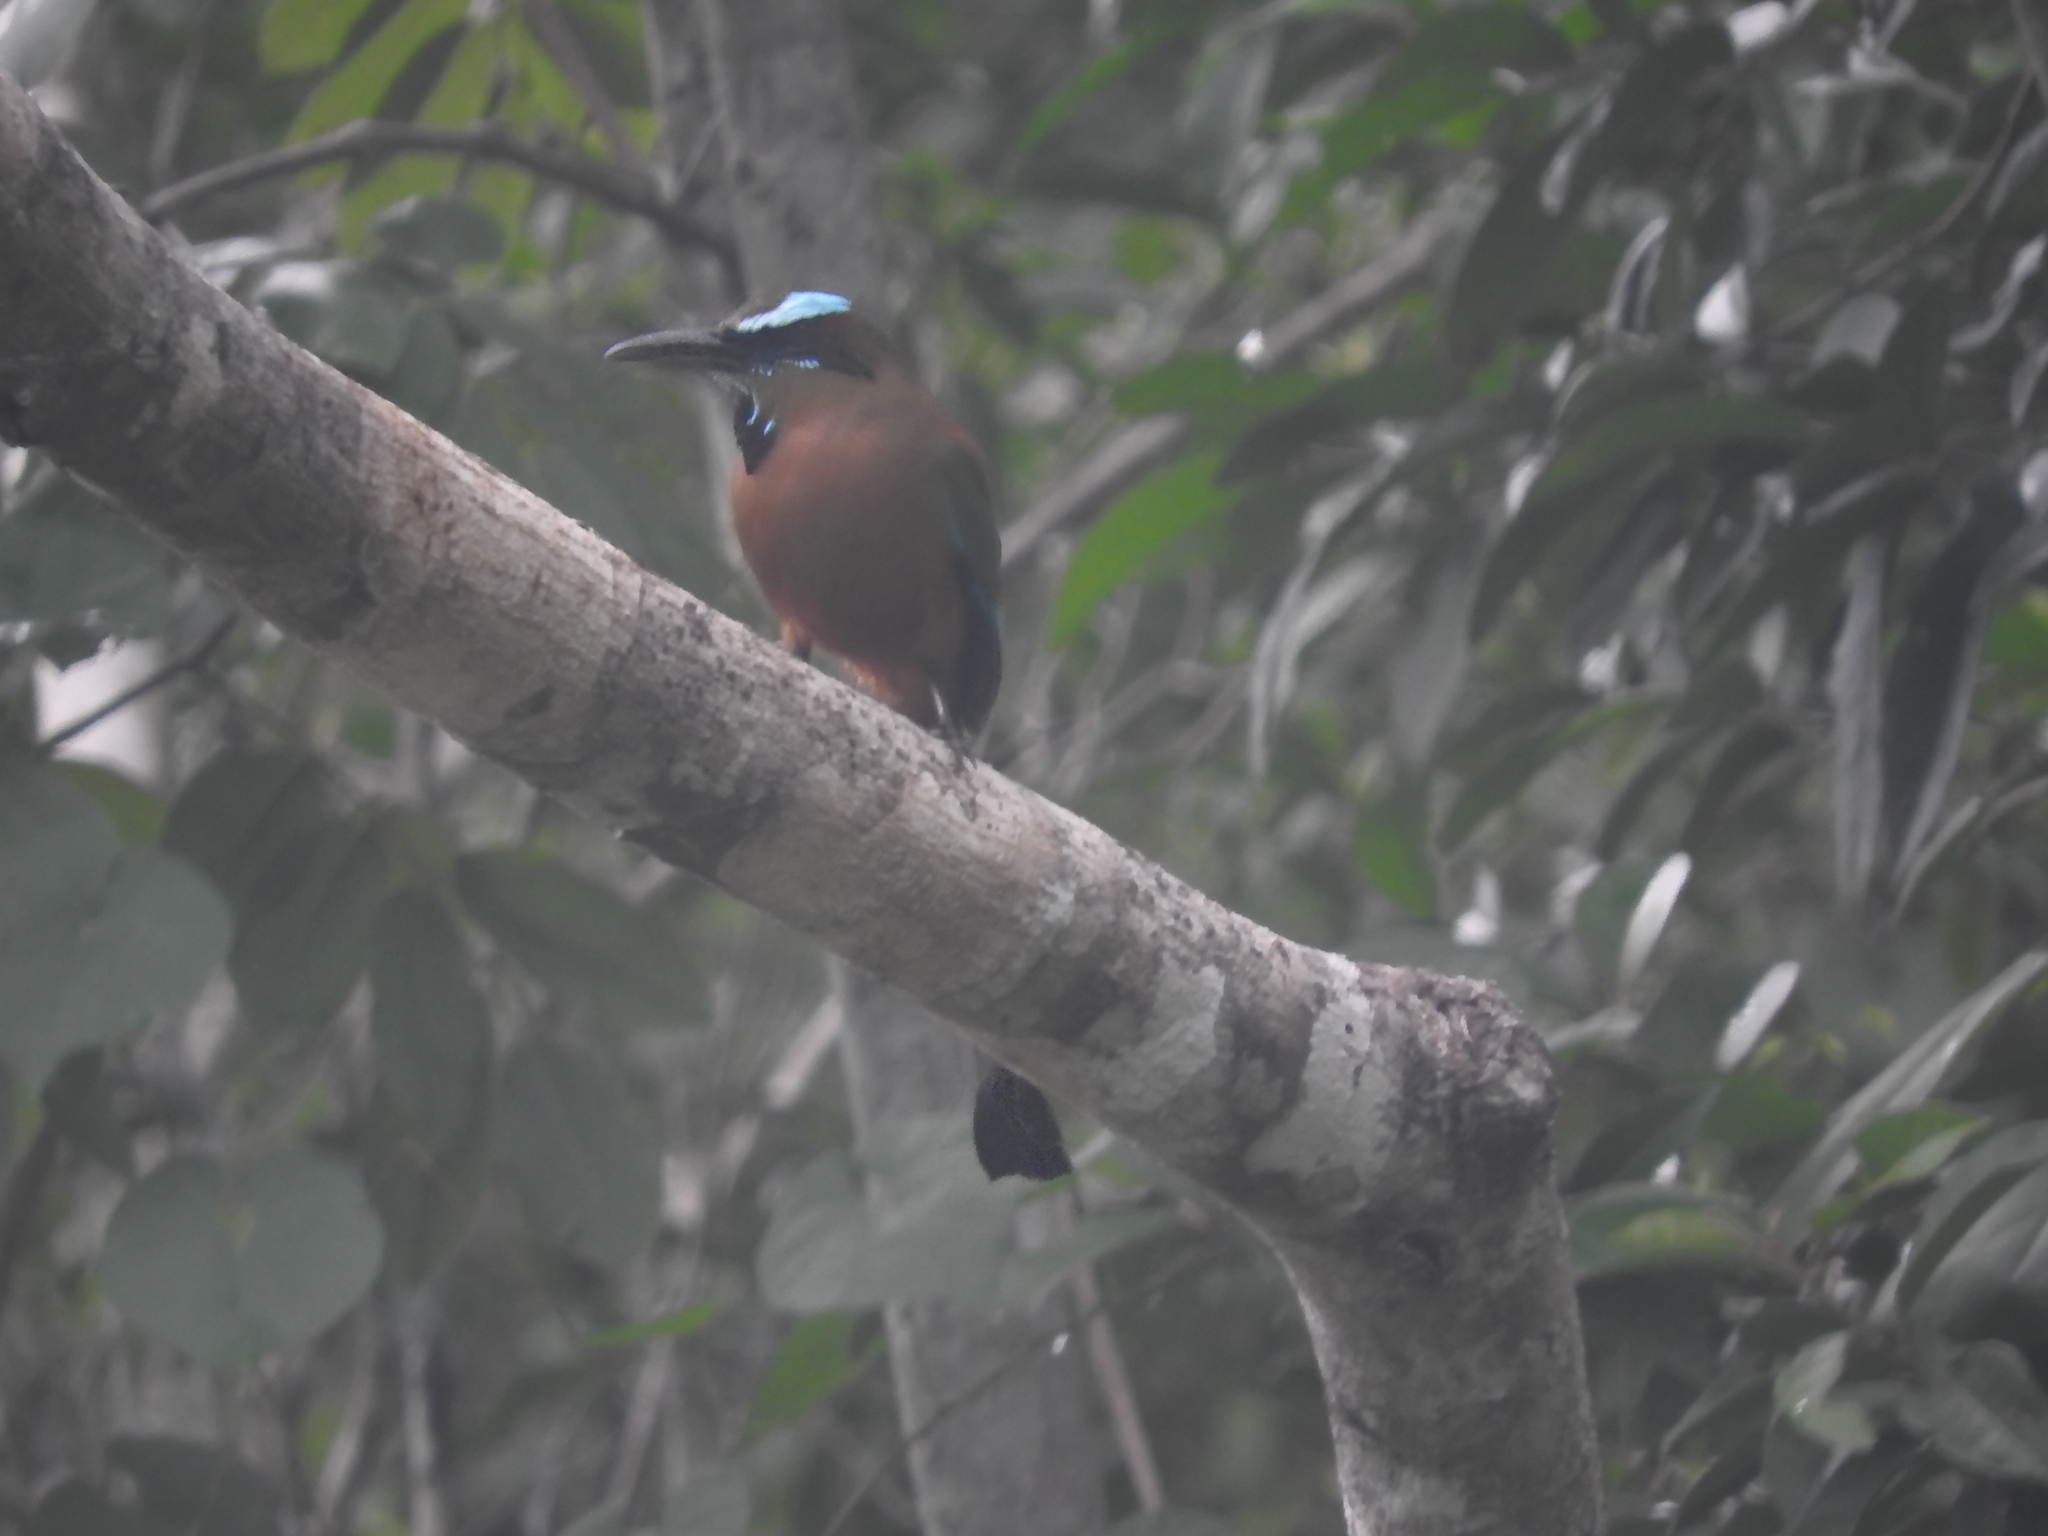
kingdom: Animalia
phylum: Chordata
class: Aves
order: Coraciiformes
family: Momotidae
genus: Eumomota
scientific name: Eumomota superciliosa
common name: Turquoise-browed motmot
